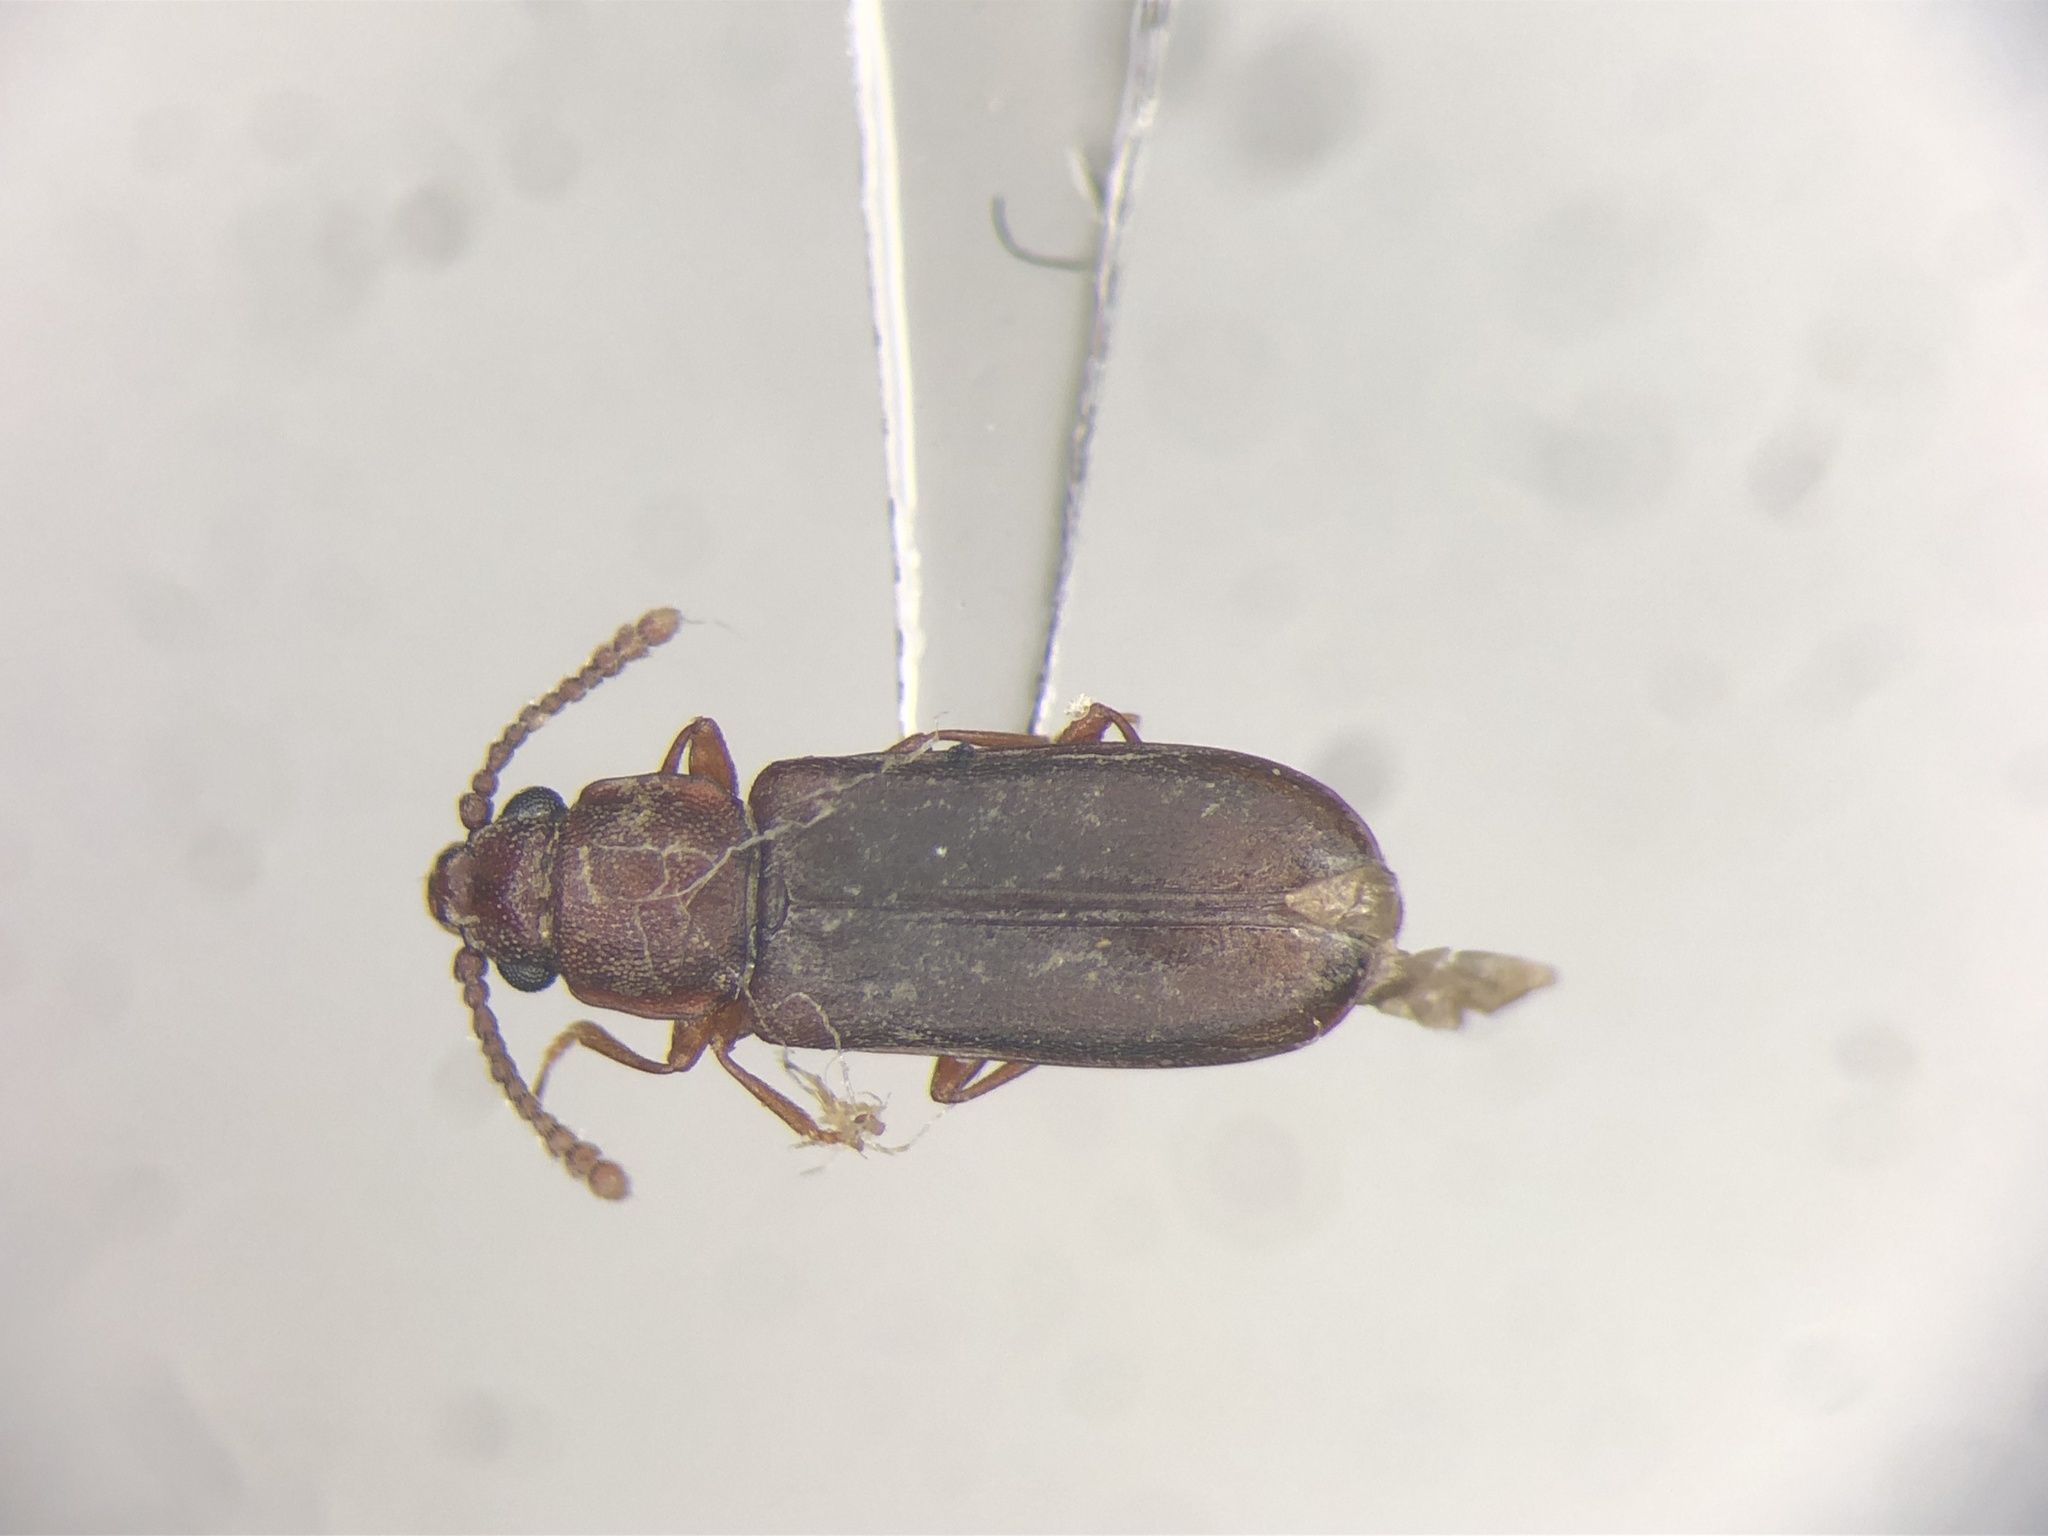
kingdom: Animalia
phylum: Arthropoda
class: Insecta
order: Coleoptera
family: Cucujidae
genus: Pediacus
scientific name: Pediacus fuscus
